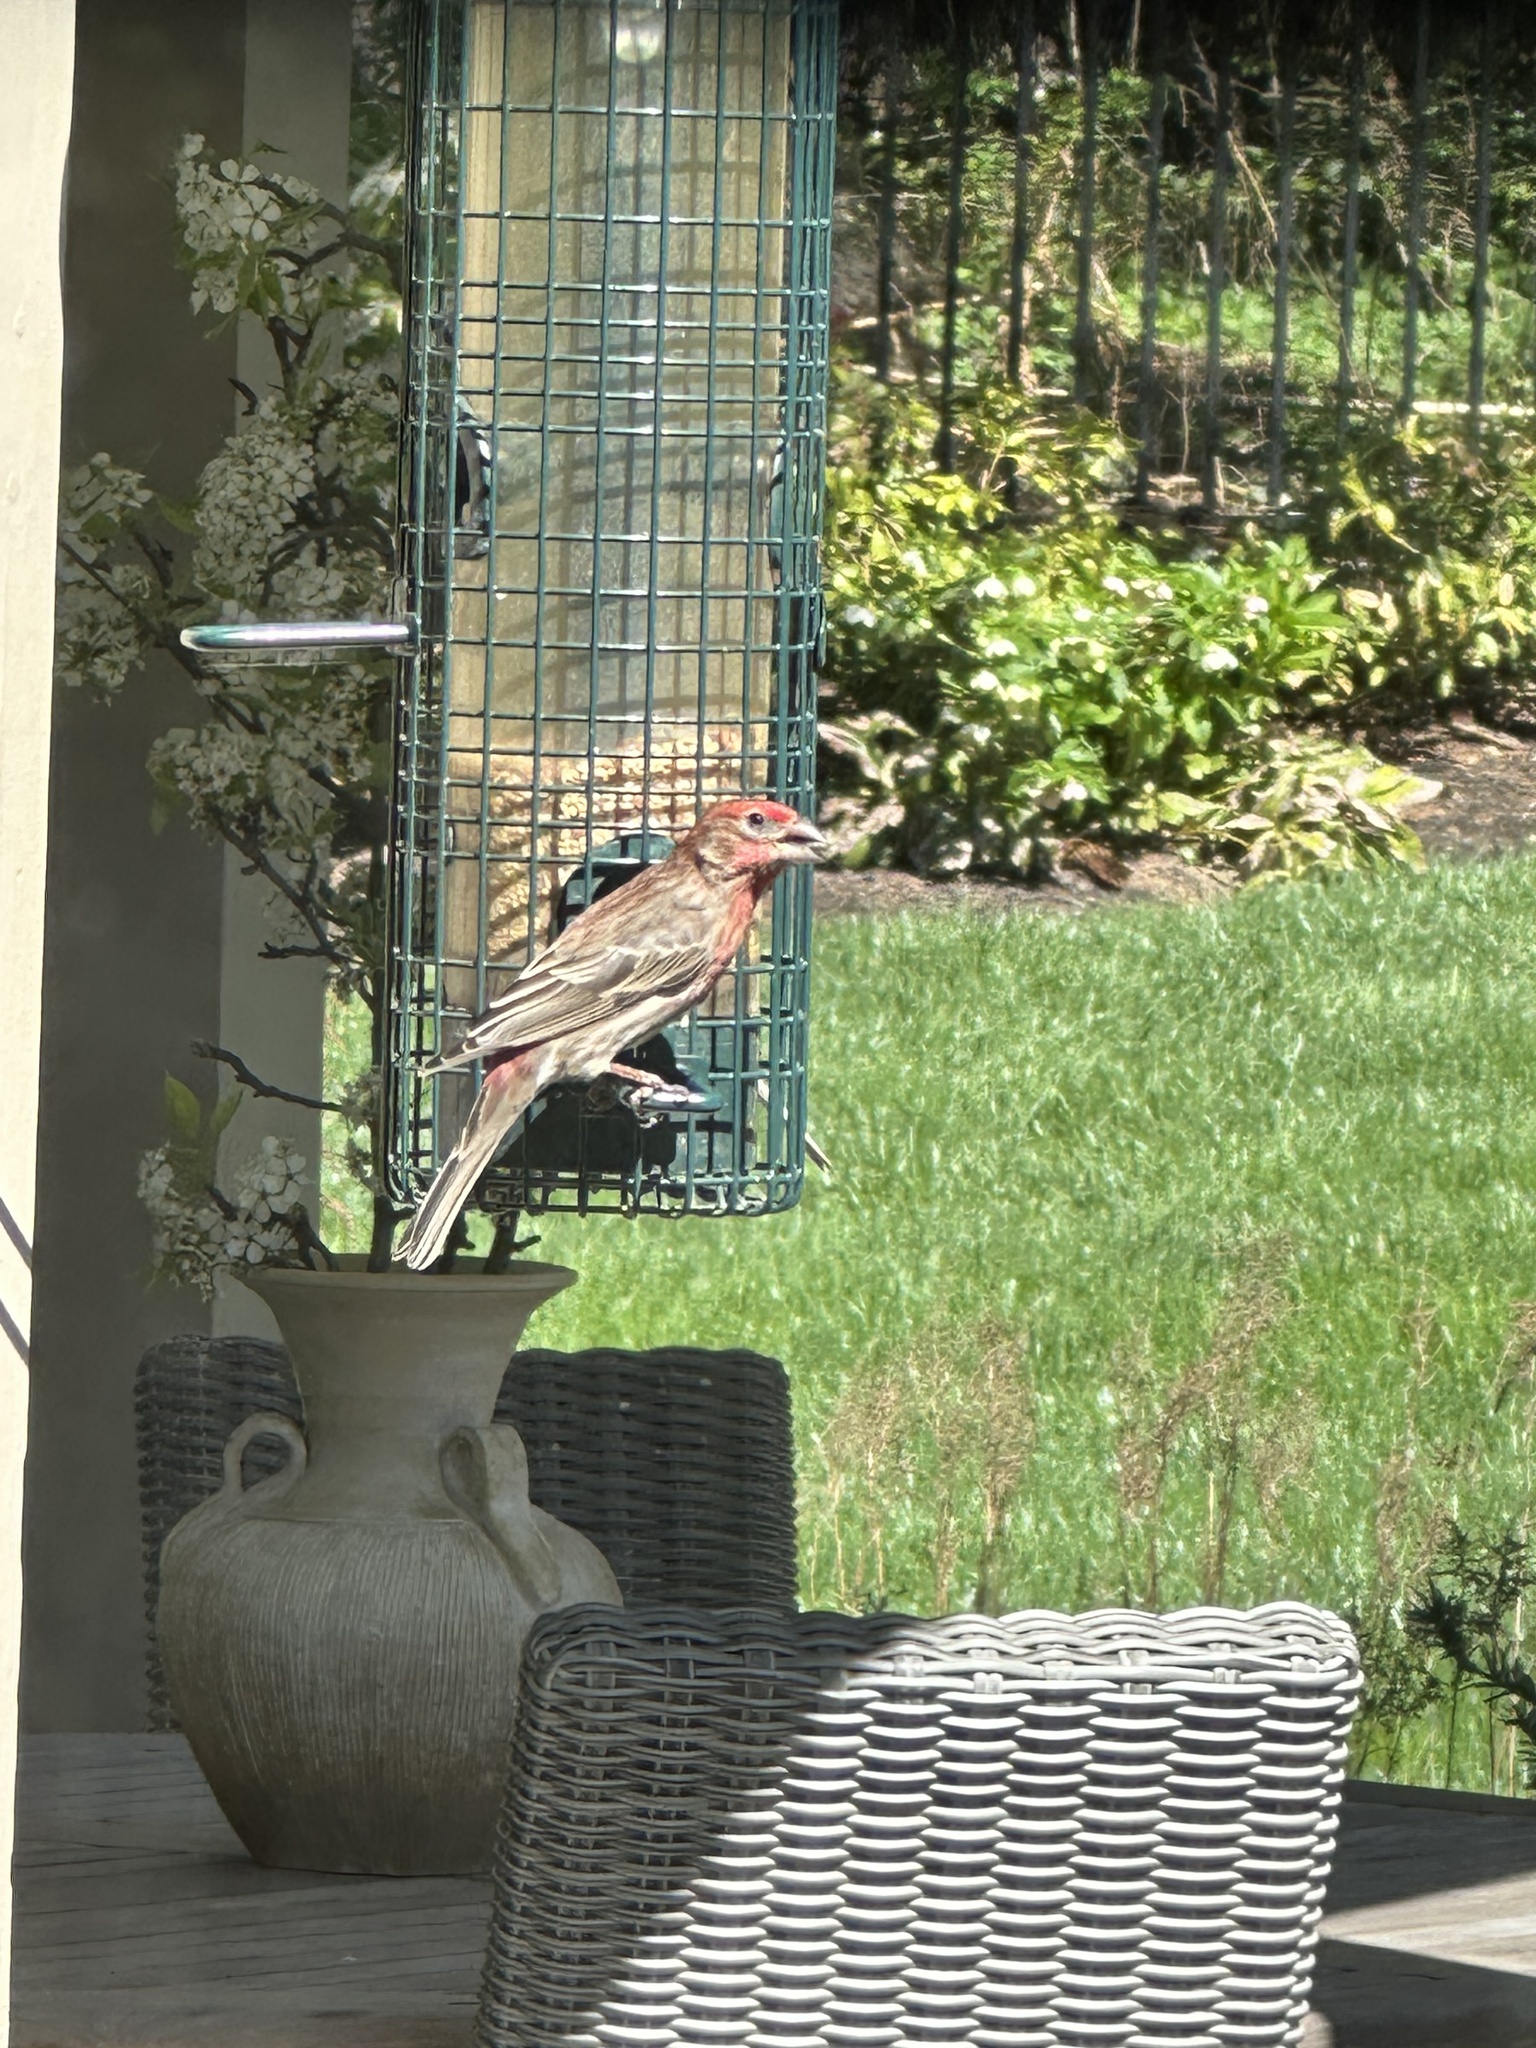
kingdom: Animalia
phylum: Chordata
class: Aves
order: Passeriformes
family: Fringillidae
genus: Haemorhous
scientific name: Haemorhous mexicanus
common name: House finch
